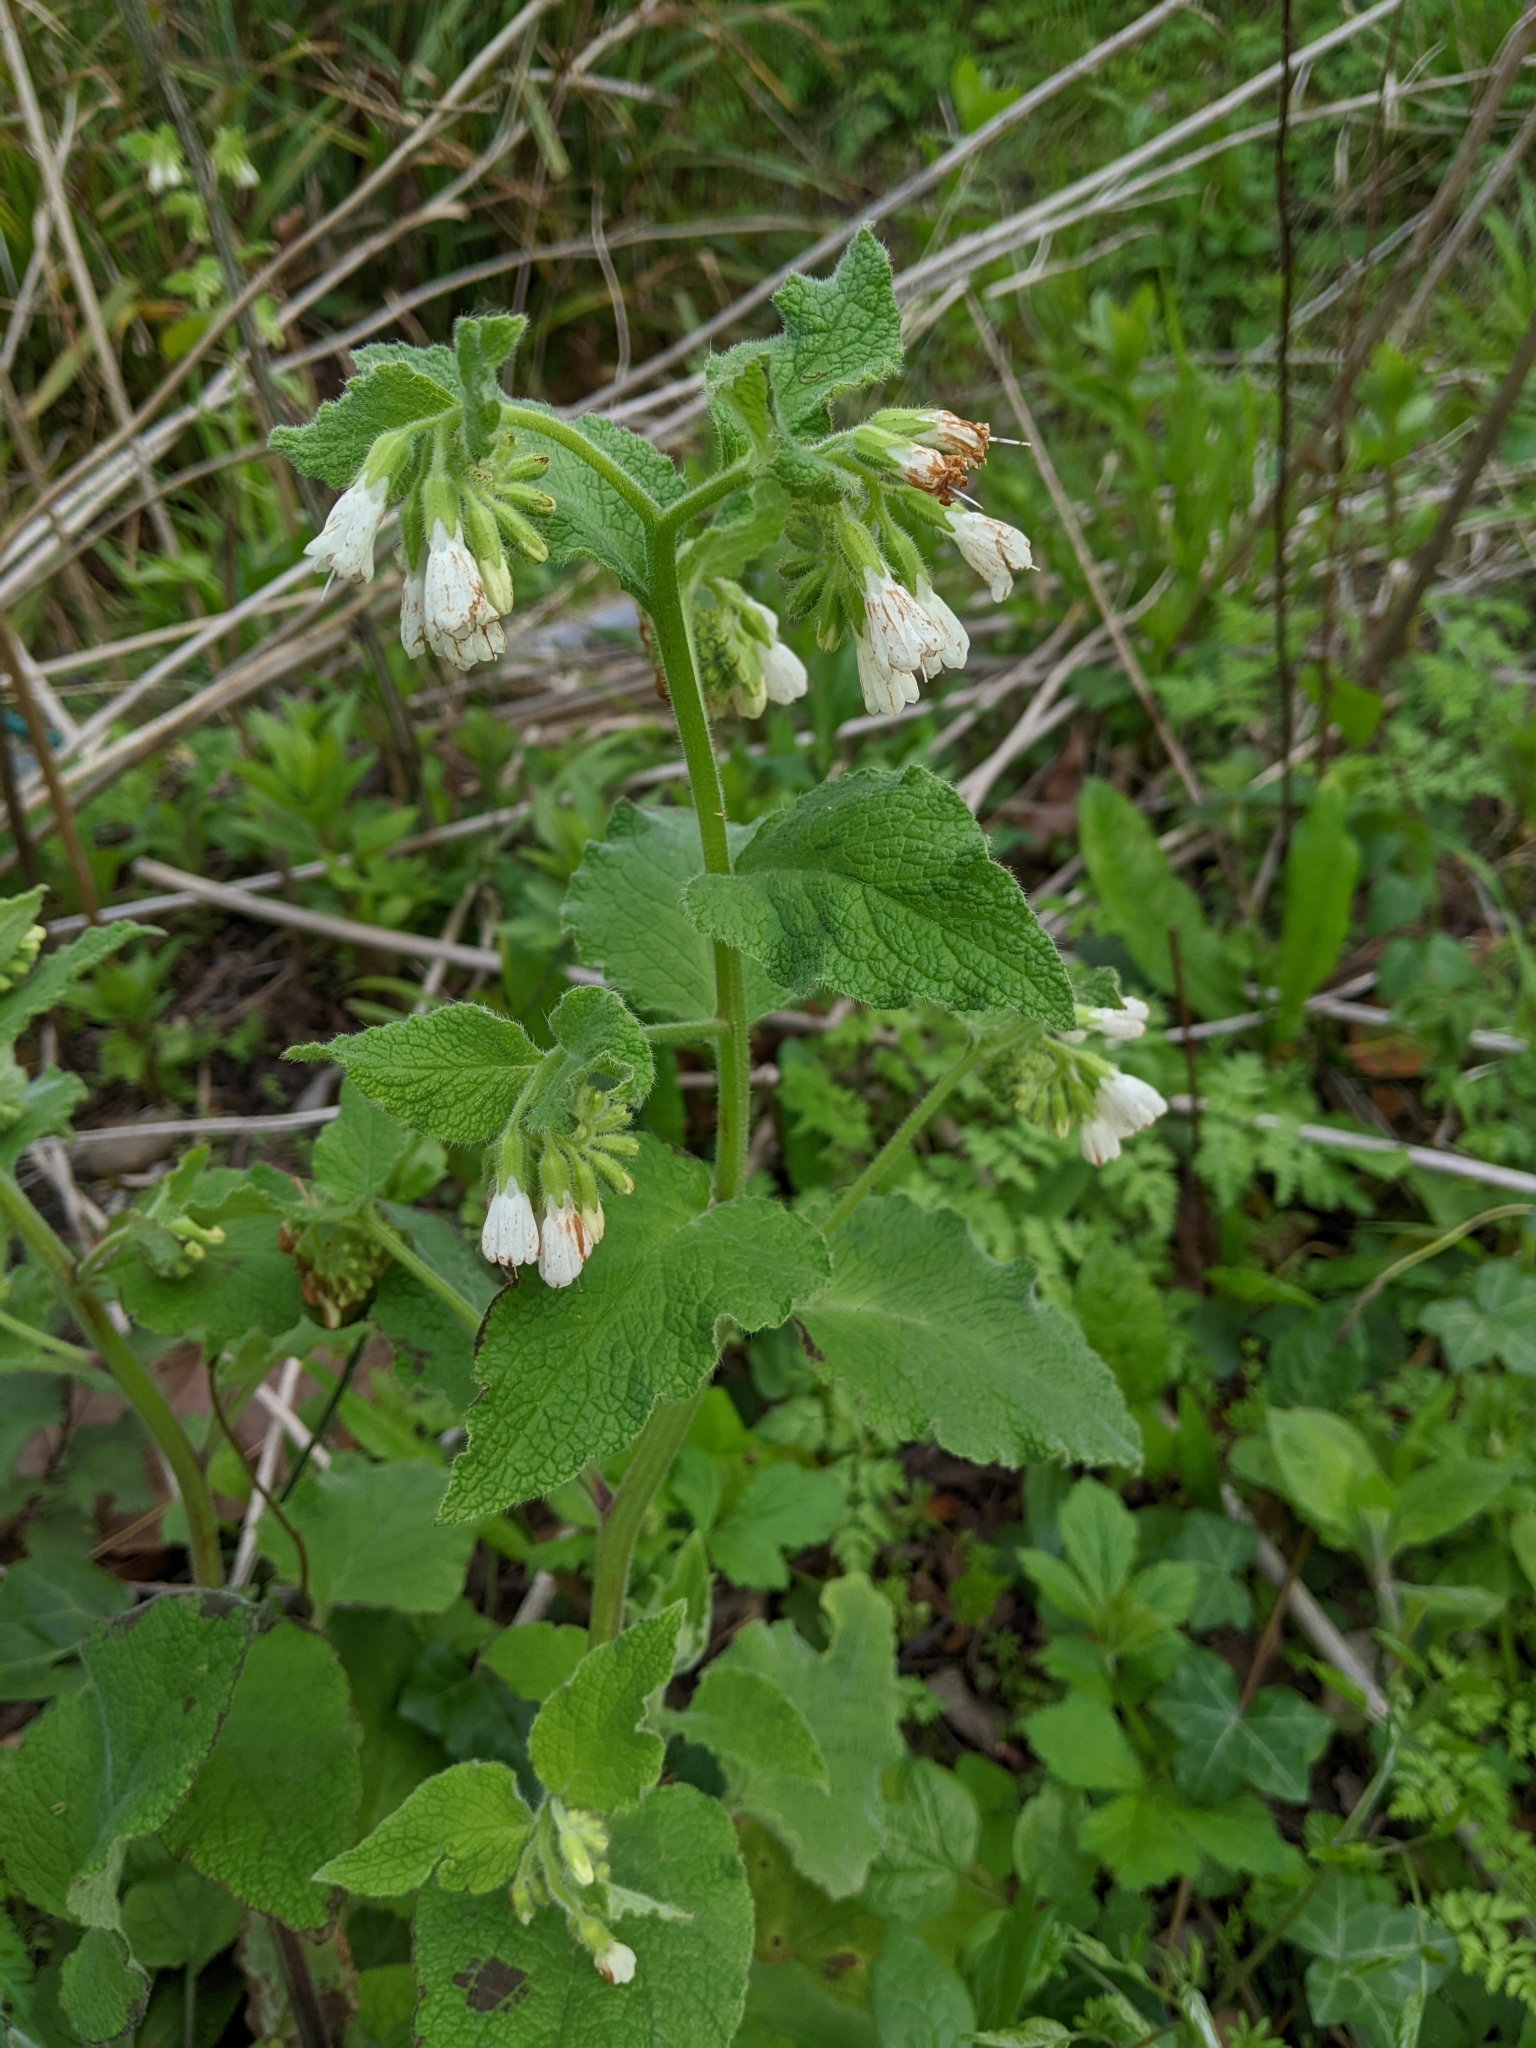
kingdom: Plantae
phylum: Tracheophyta
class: Magnoliopsida
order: Boraginales
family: Boraginaceae
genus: Symphytum
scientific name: Symphytum orientale
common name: White comfrey
